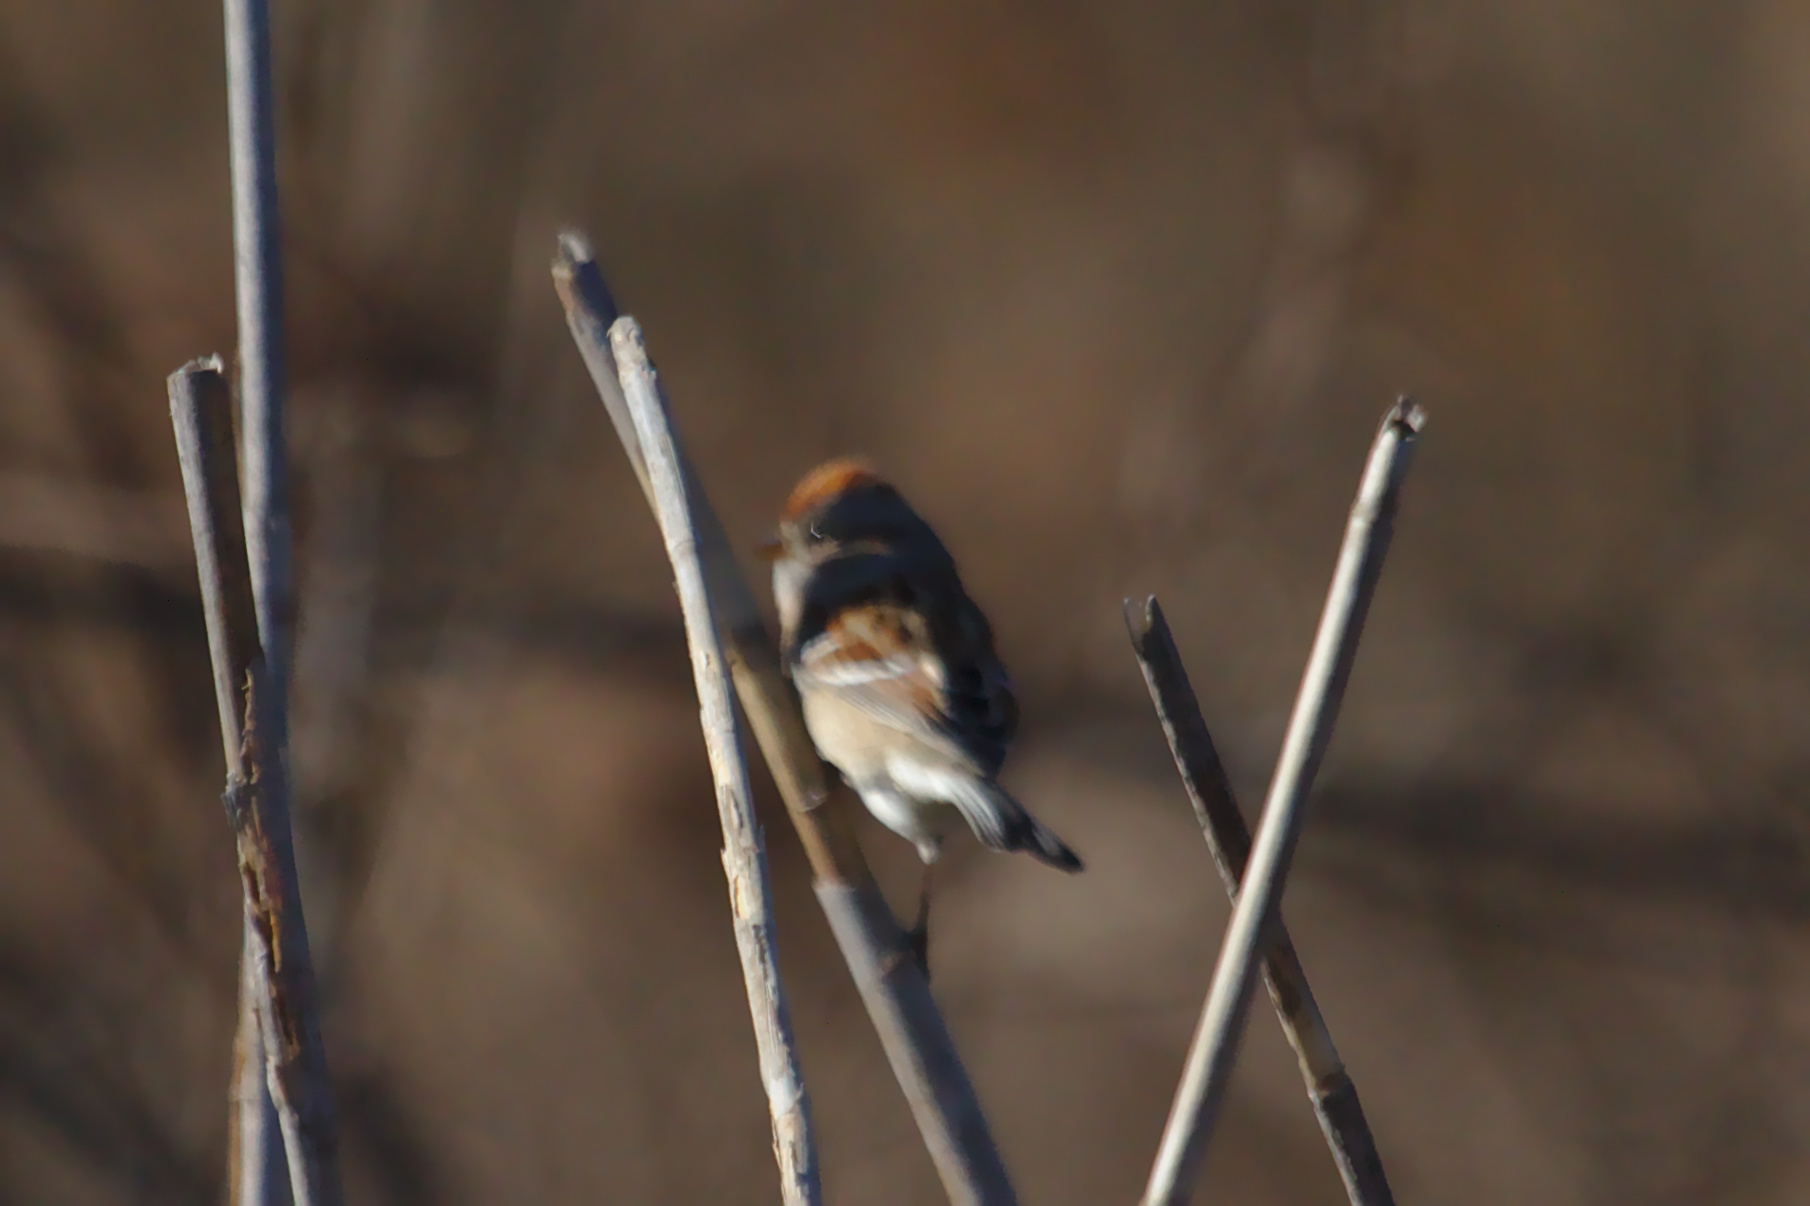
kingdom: Animalia
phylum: Chordata
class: Aves
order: Passeriformes
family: Passerellidae
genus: Spizelloides
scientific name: Spizelloides arborea
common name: American tree sparrow
